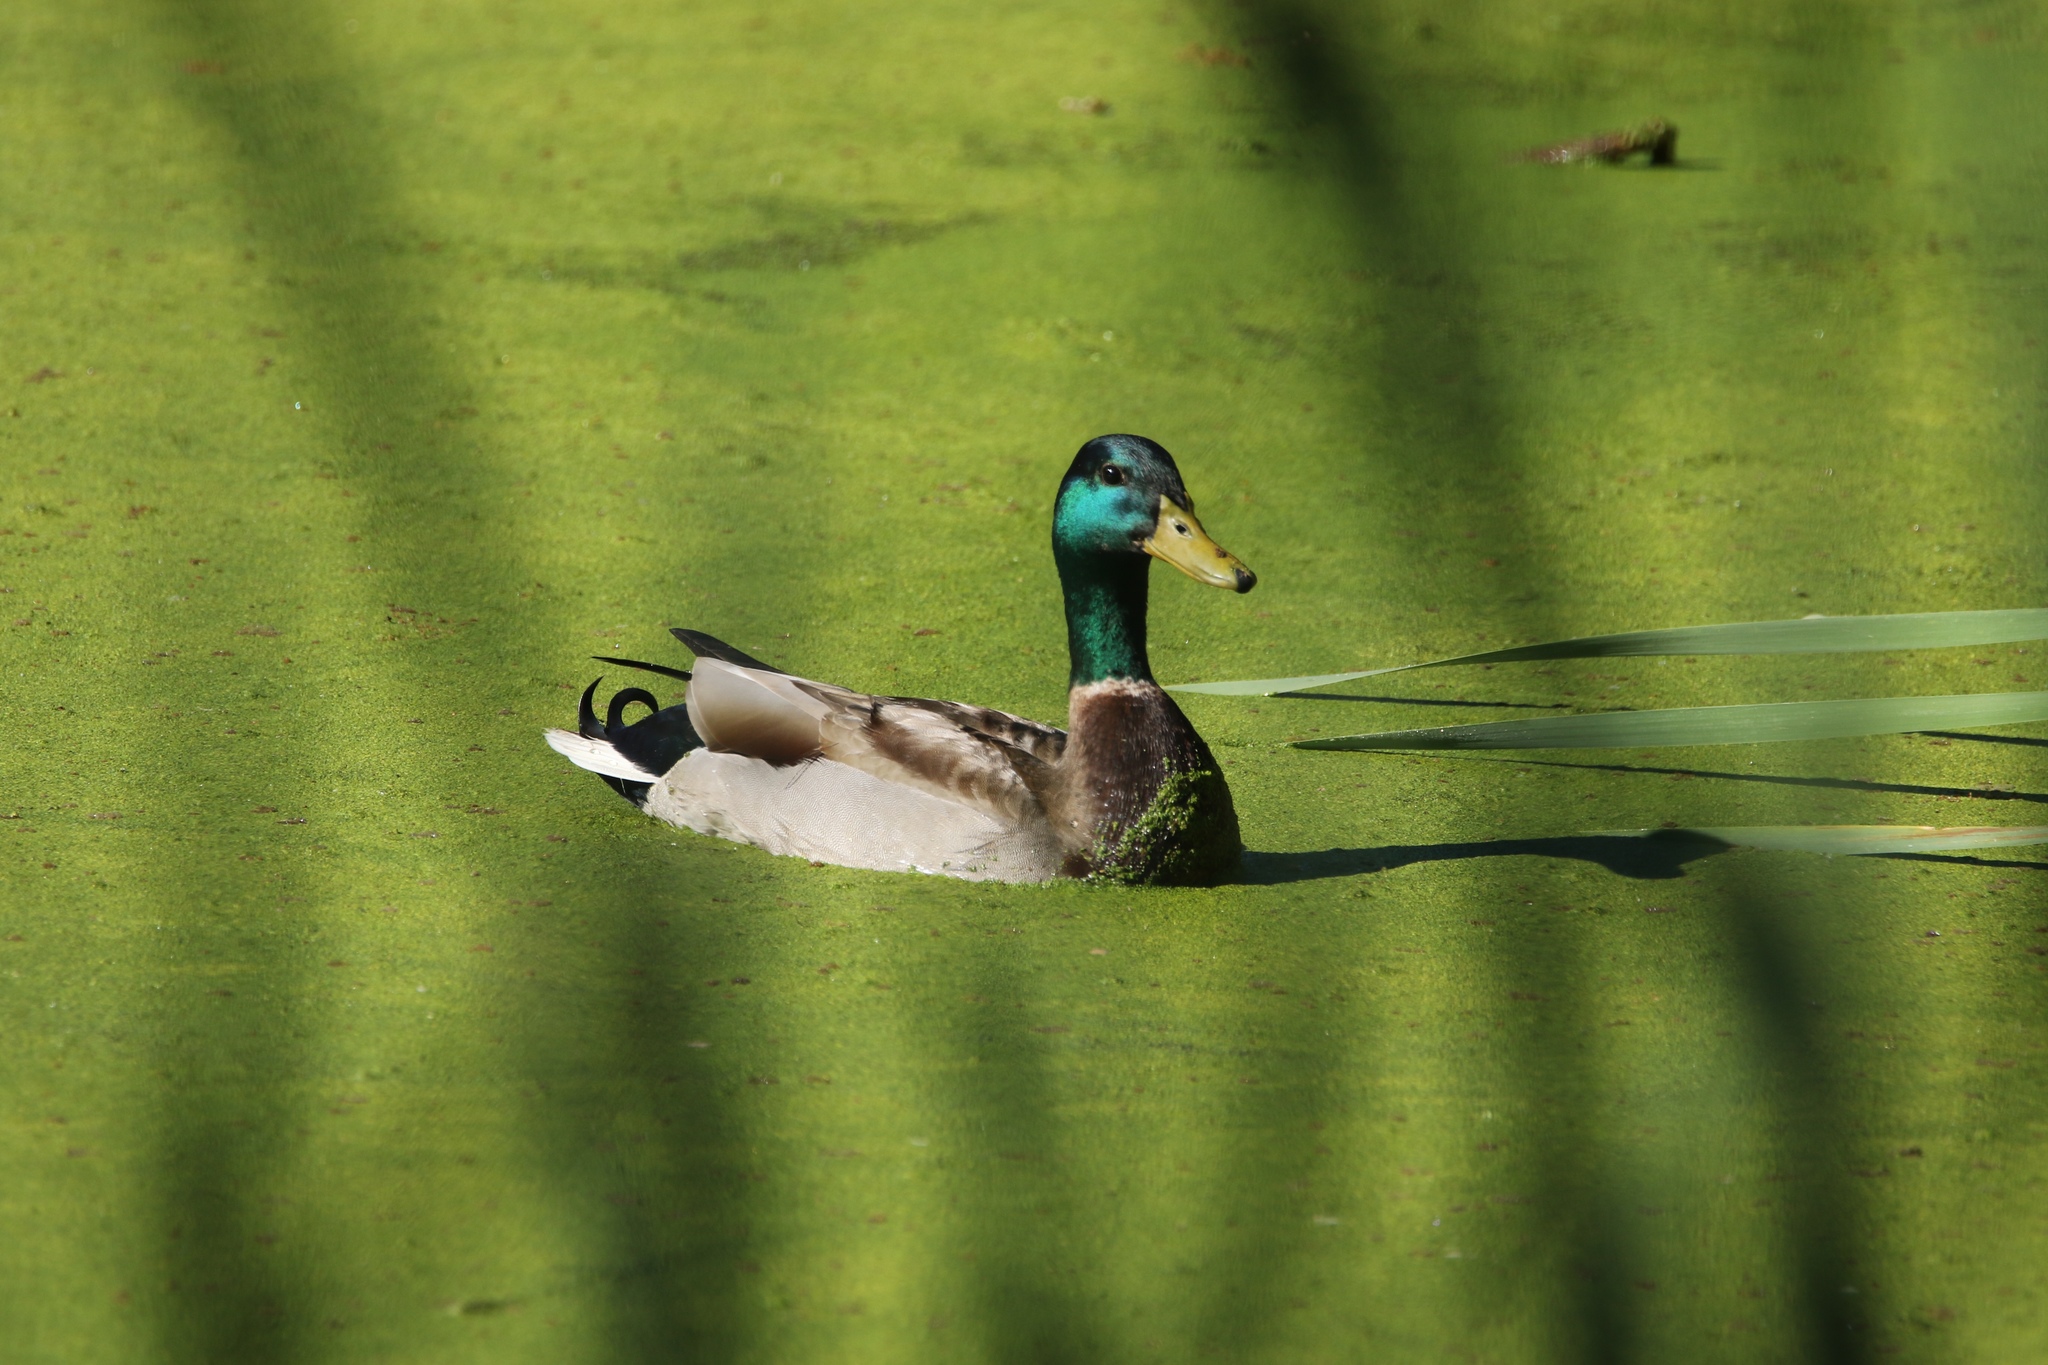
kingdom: Animalia
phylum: Chordata
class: Aves
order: Anseriformes
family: Anatidae
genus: Anas
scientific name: Anas platyrhynchos
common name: Mallard
